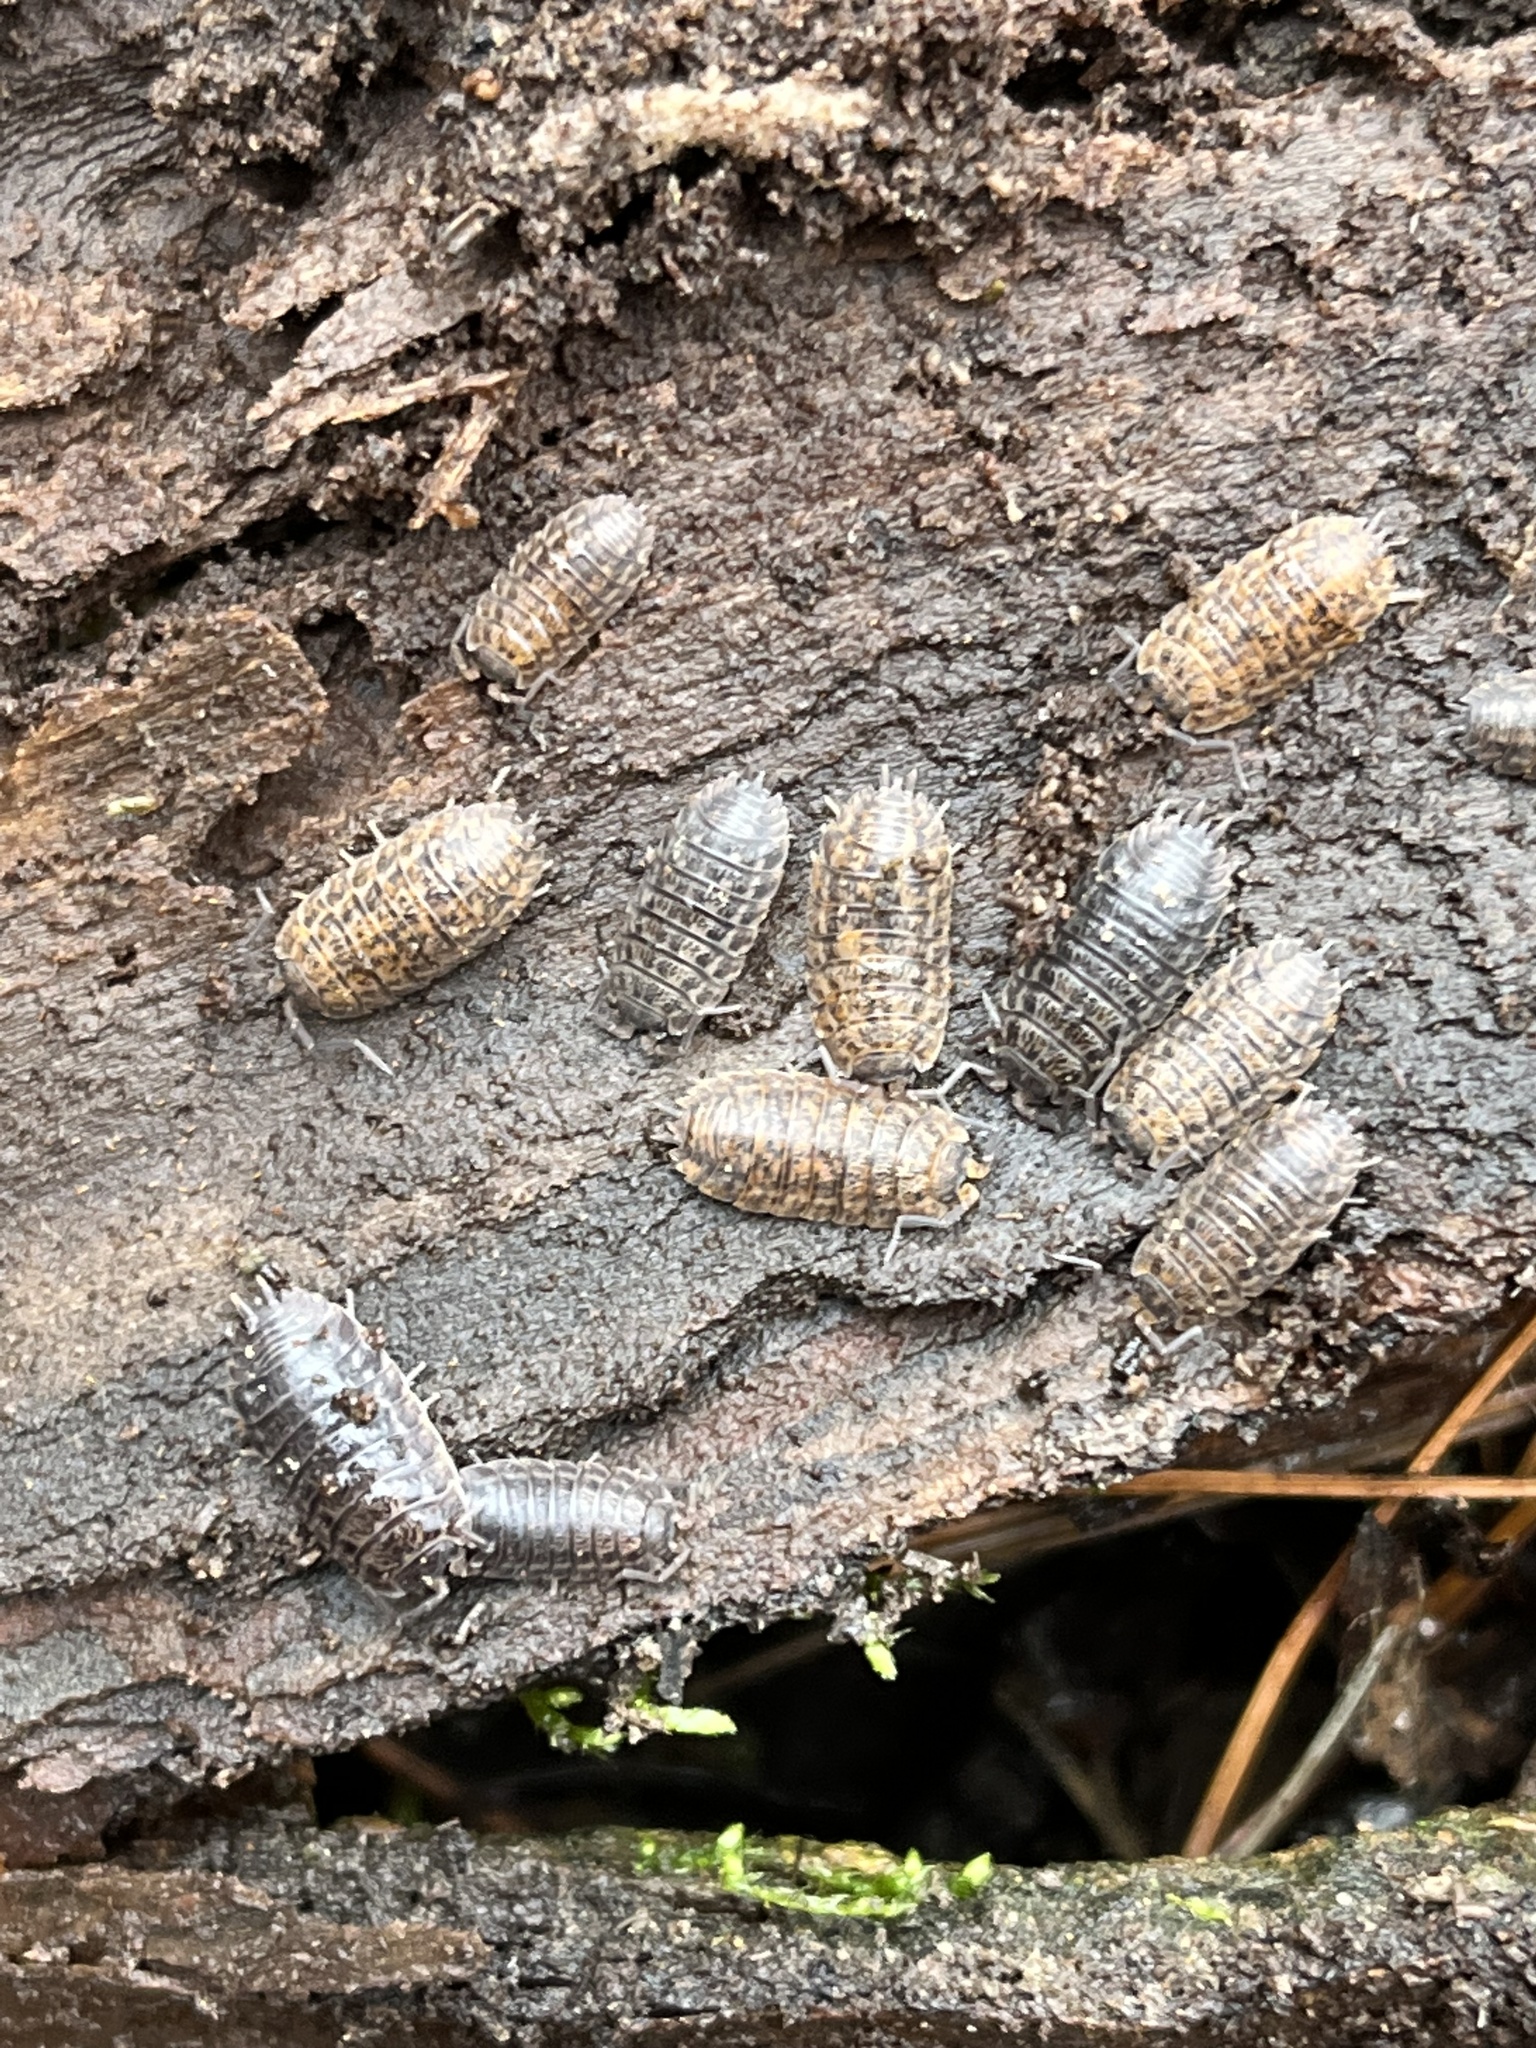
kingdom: Animalia
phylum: Arthropoda
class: Malacostraca
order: Isopoda
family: Trachelipodidae
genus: Trachelipus
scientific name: Trachelipus rathkii
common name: Isopod
